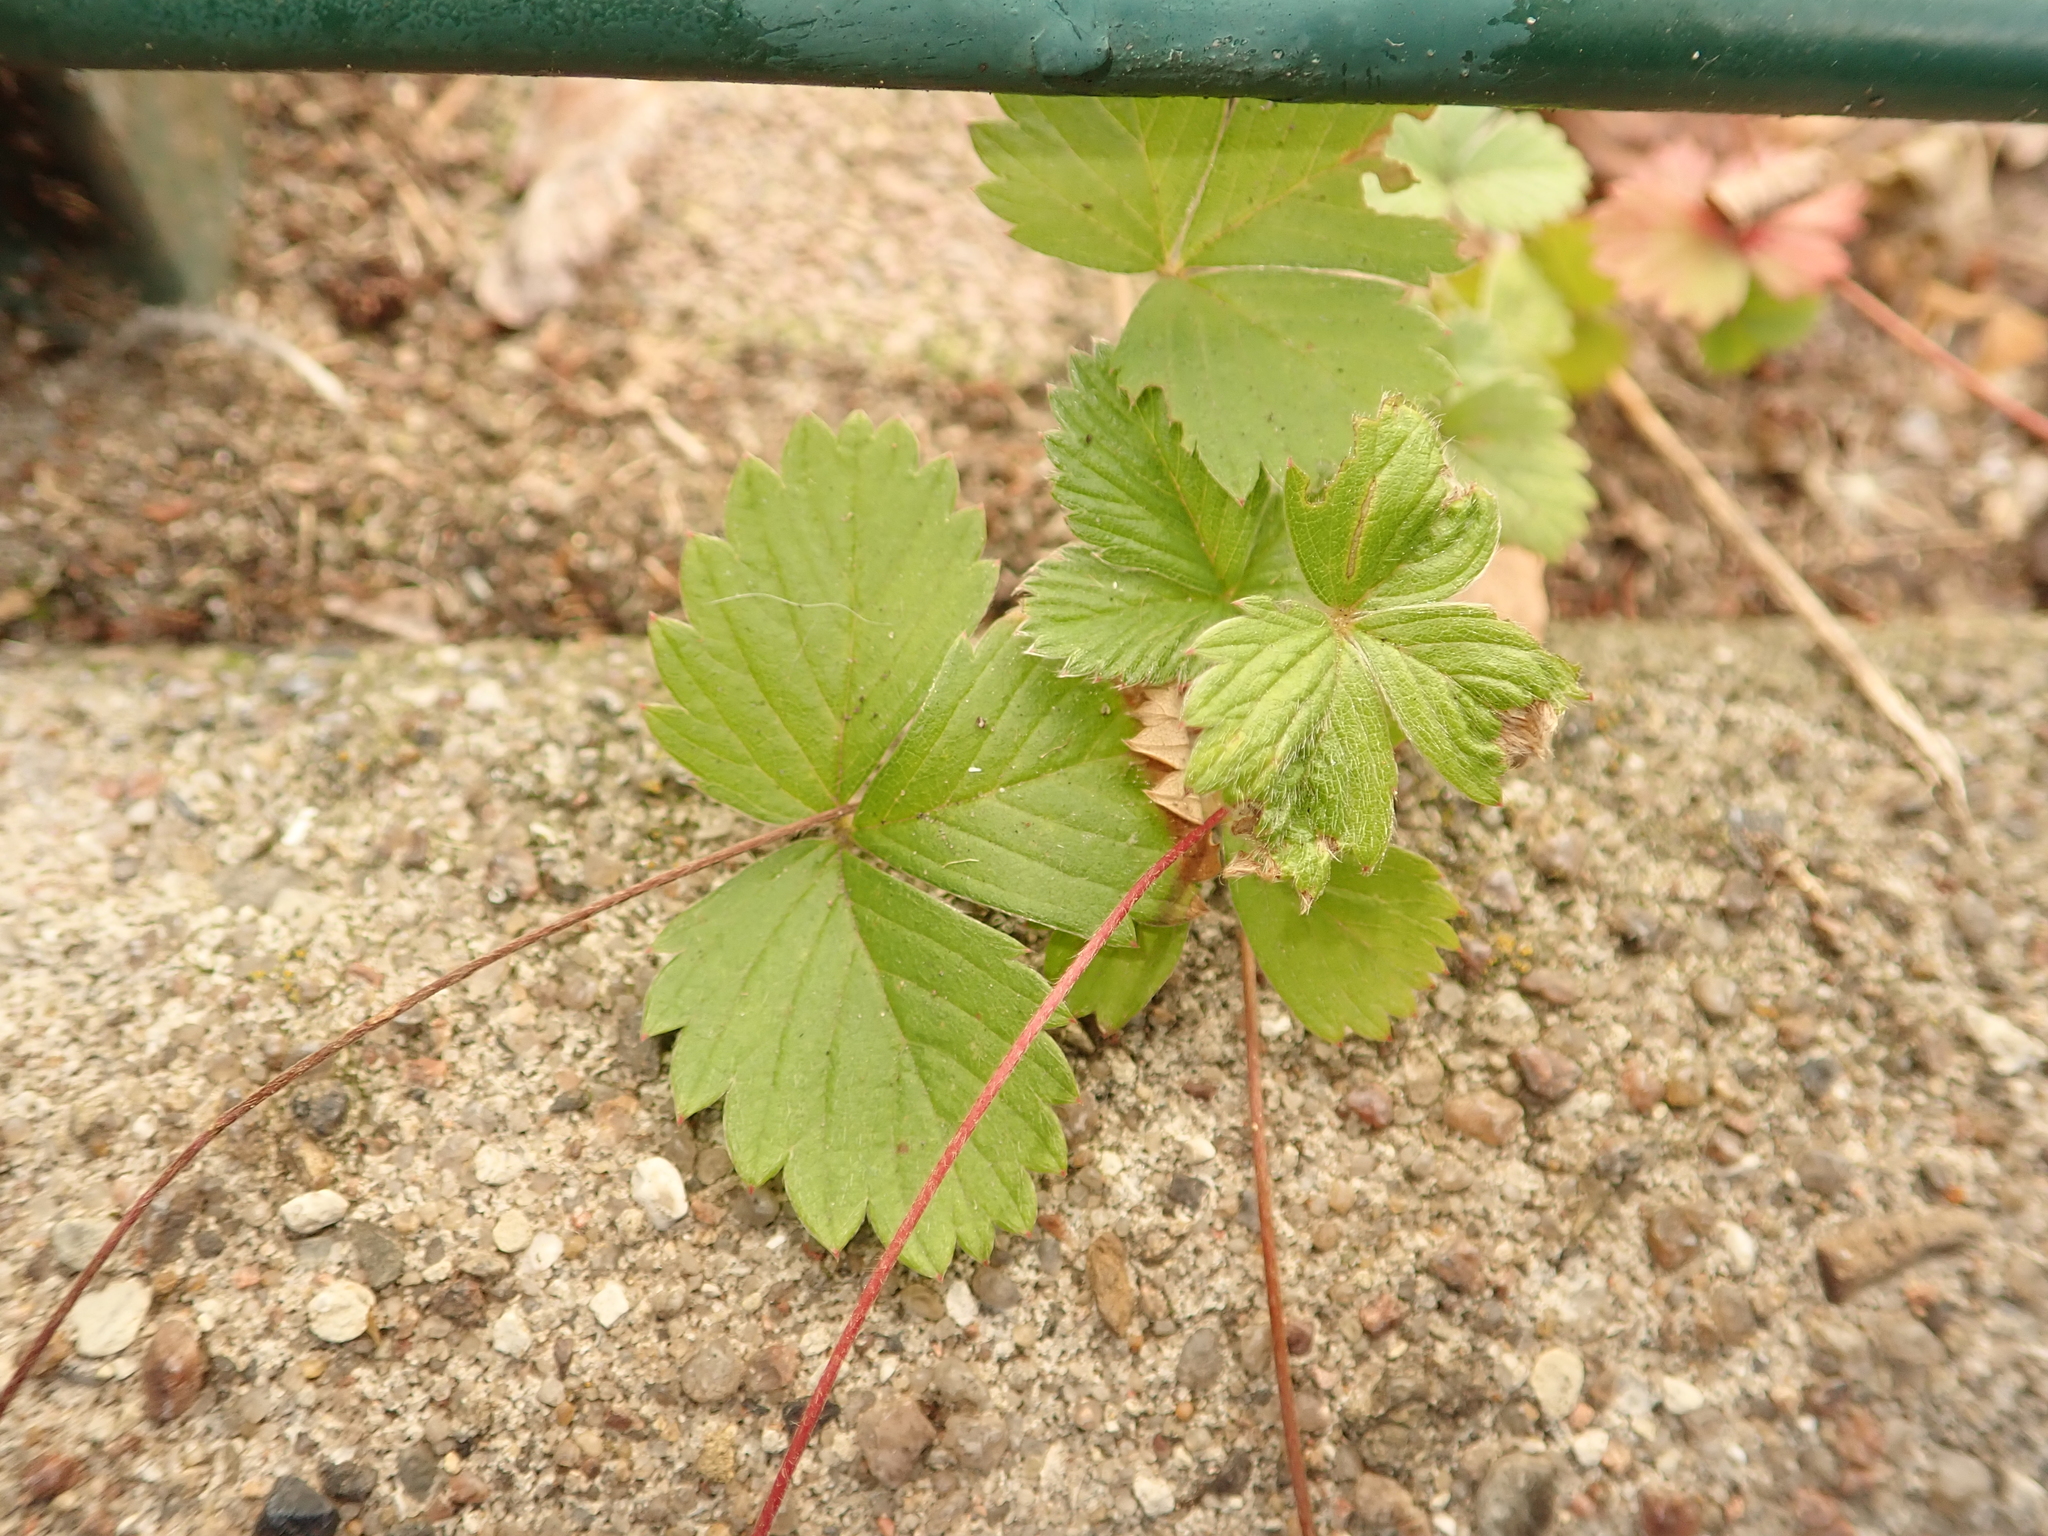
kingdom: Plantae
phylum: Tracheophyta
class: Magnoliopsida
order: Rosales
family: Rosaceae
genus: Fragaria
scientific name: Fragaria vesca
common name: Wild strawberry
